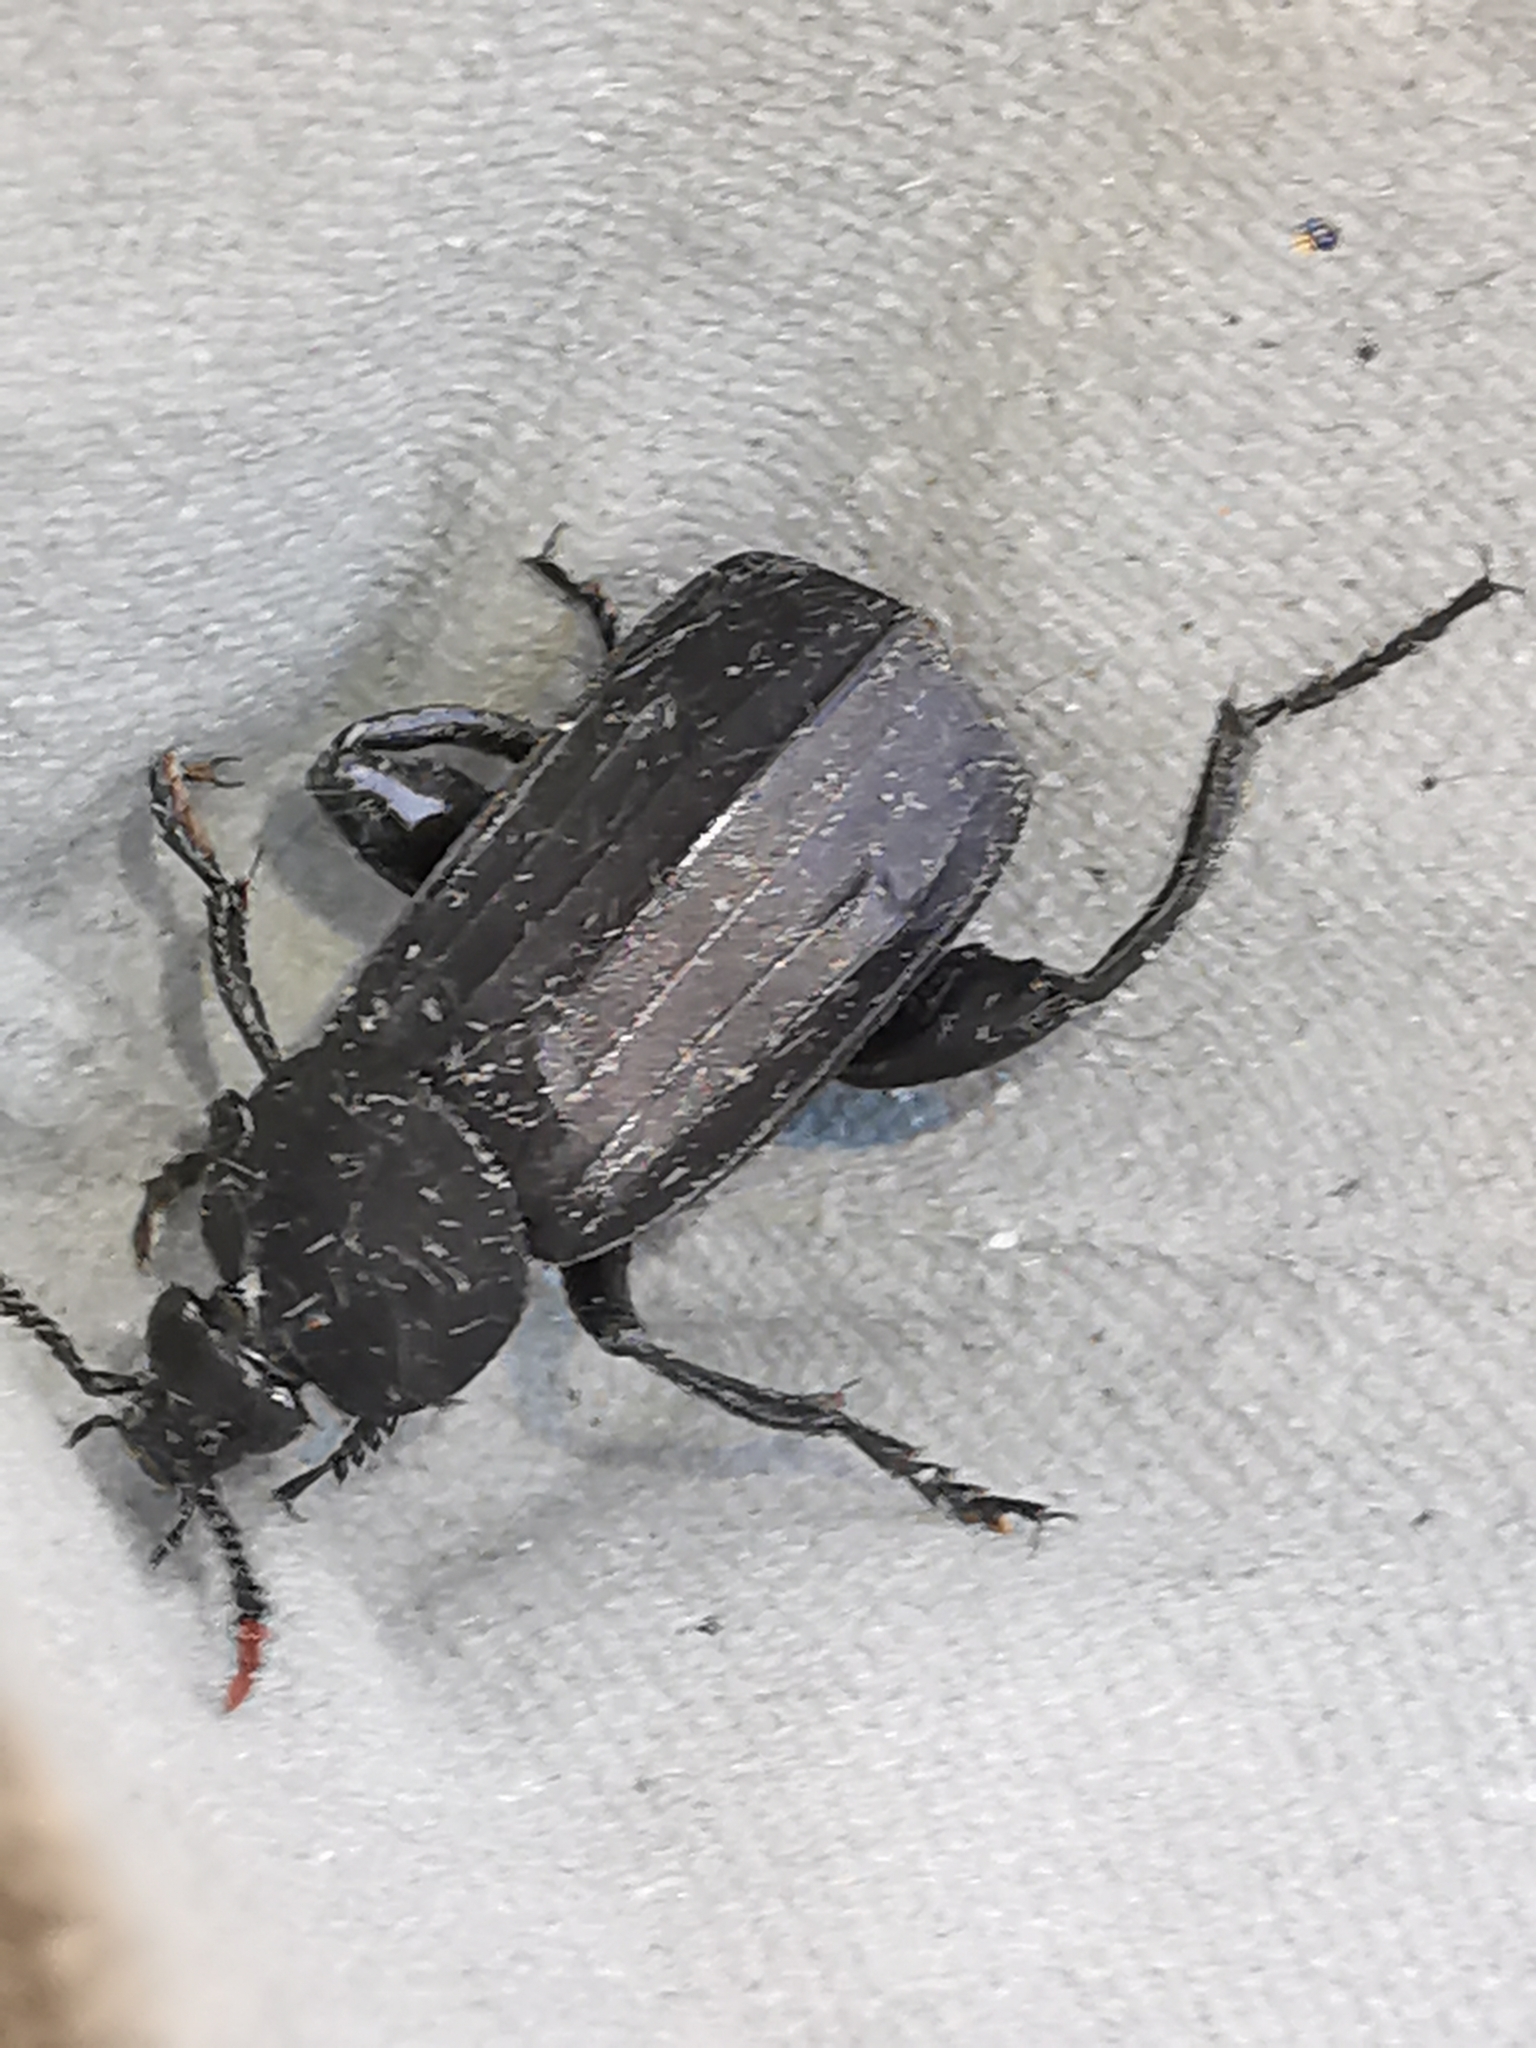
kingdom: Animalia
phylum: Arthropoda
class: Insecta
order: Coleoptera
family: Staphylinidae
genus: Necrodes
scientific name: Necrodes littoralis
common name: Shore sexton beetle
